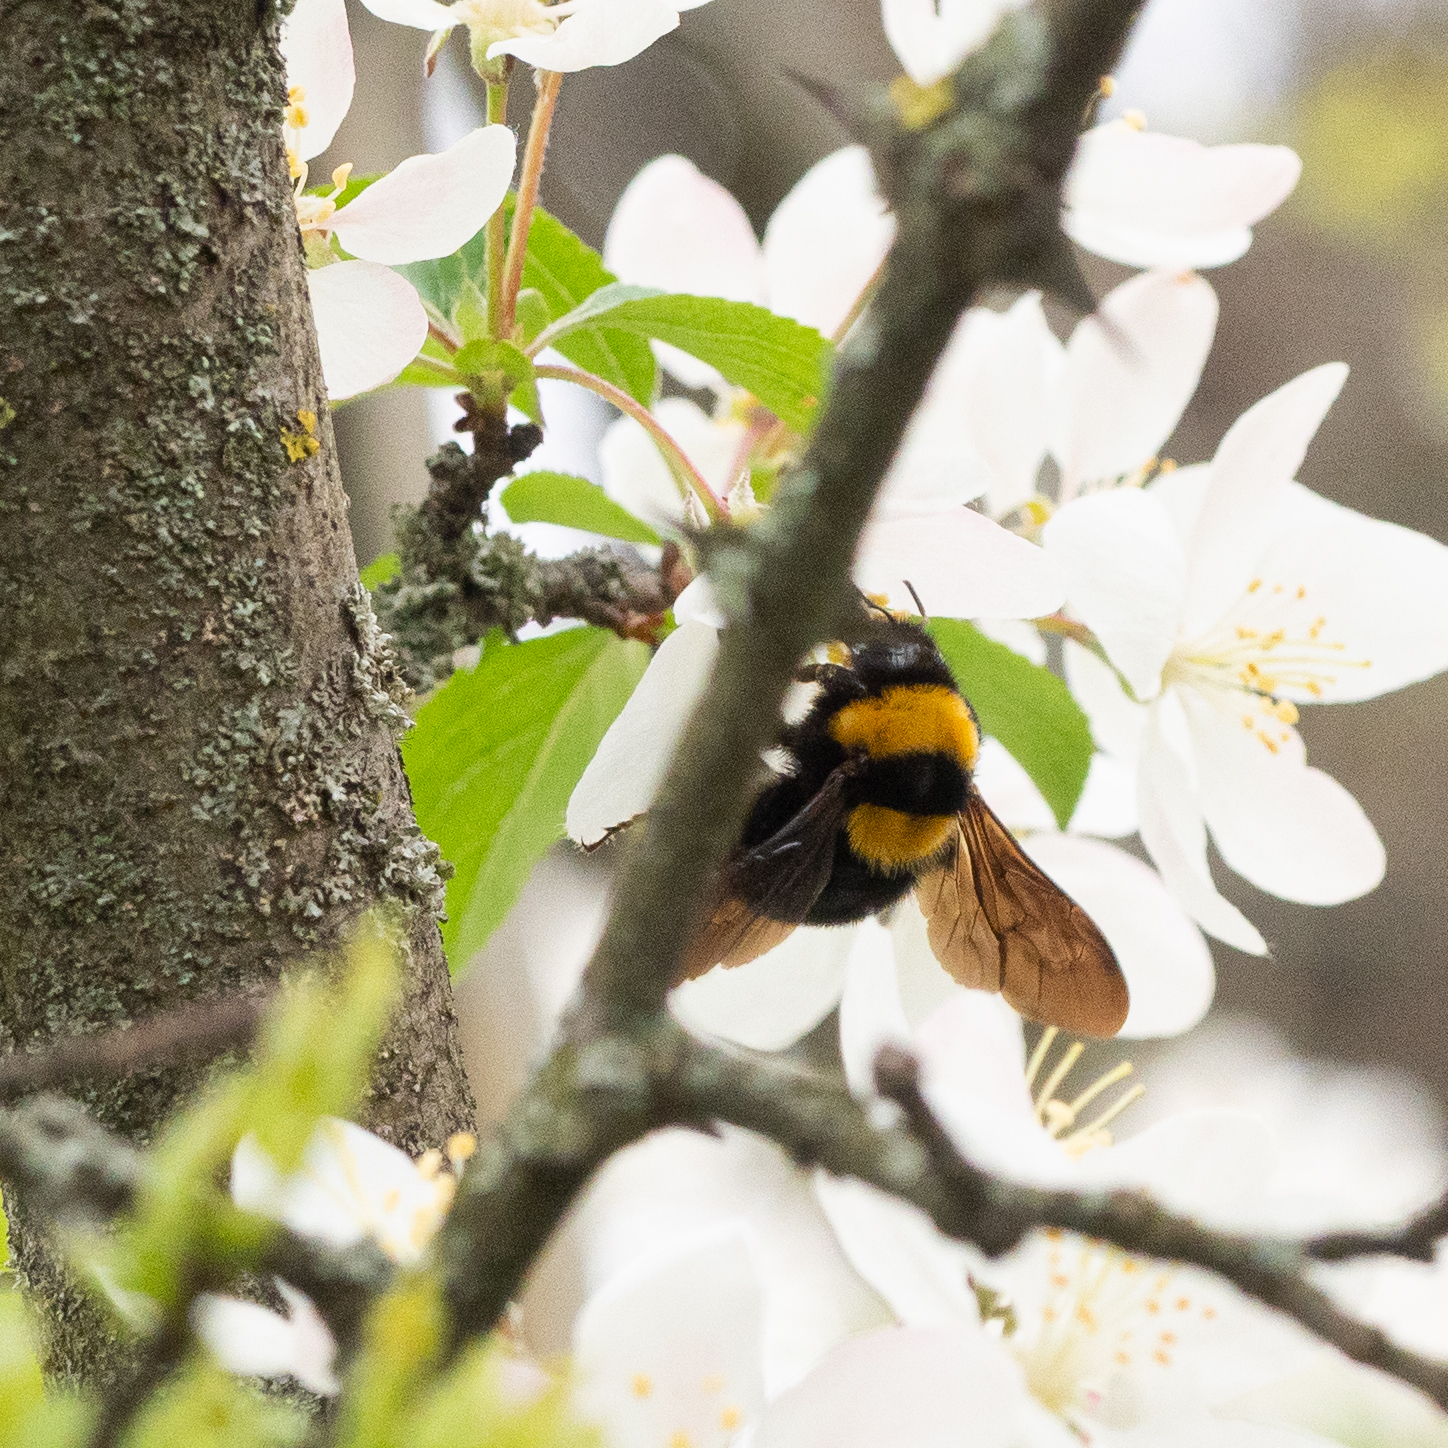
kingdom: Animalia
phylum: Arthropoda
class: Insecta
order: Hymenoptera
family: Apidae
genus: Bombus
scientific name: Bombus argillaceus
